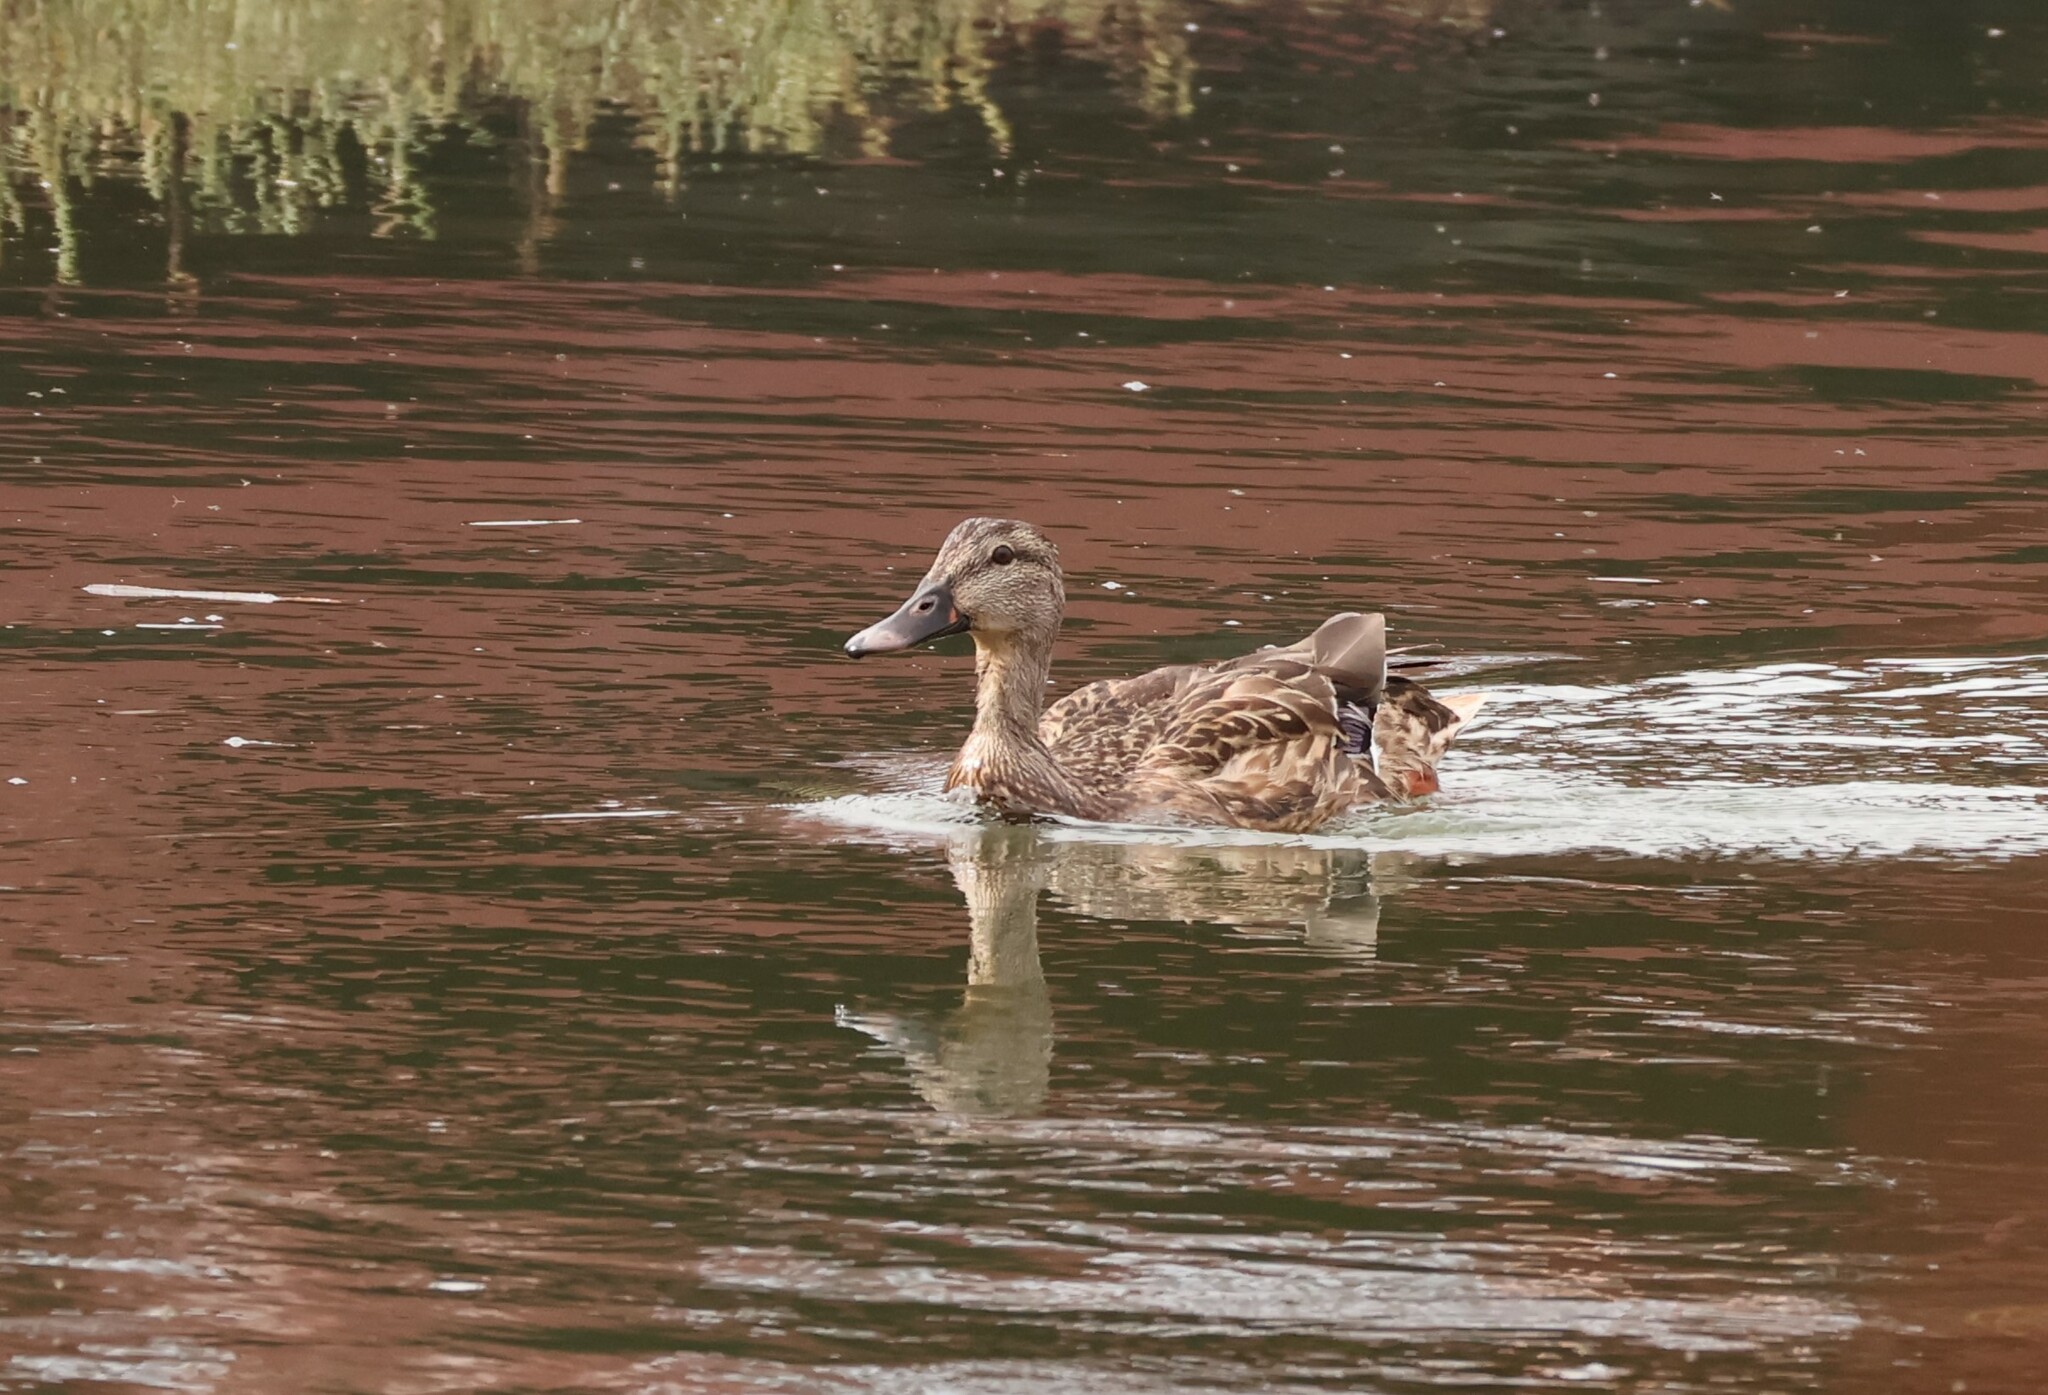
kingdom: Animalia
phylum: Chordata
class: Aves
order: Anseriformes
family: Anatidae
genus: Anas
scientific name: Anas platyrhynchos
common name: Mallard
